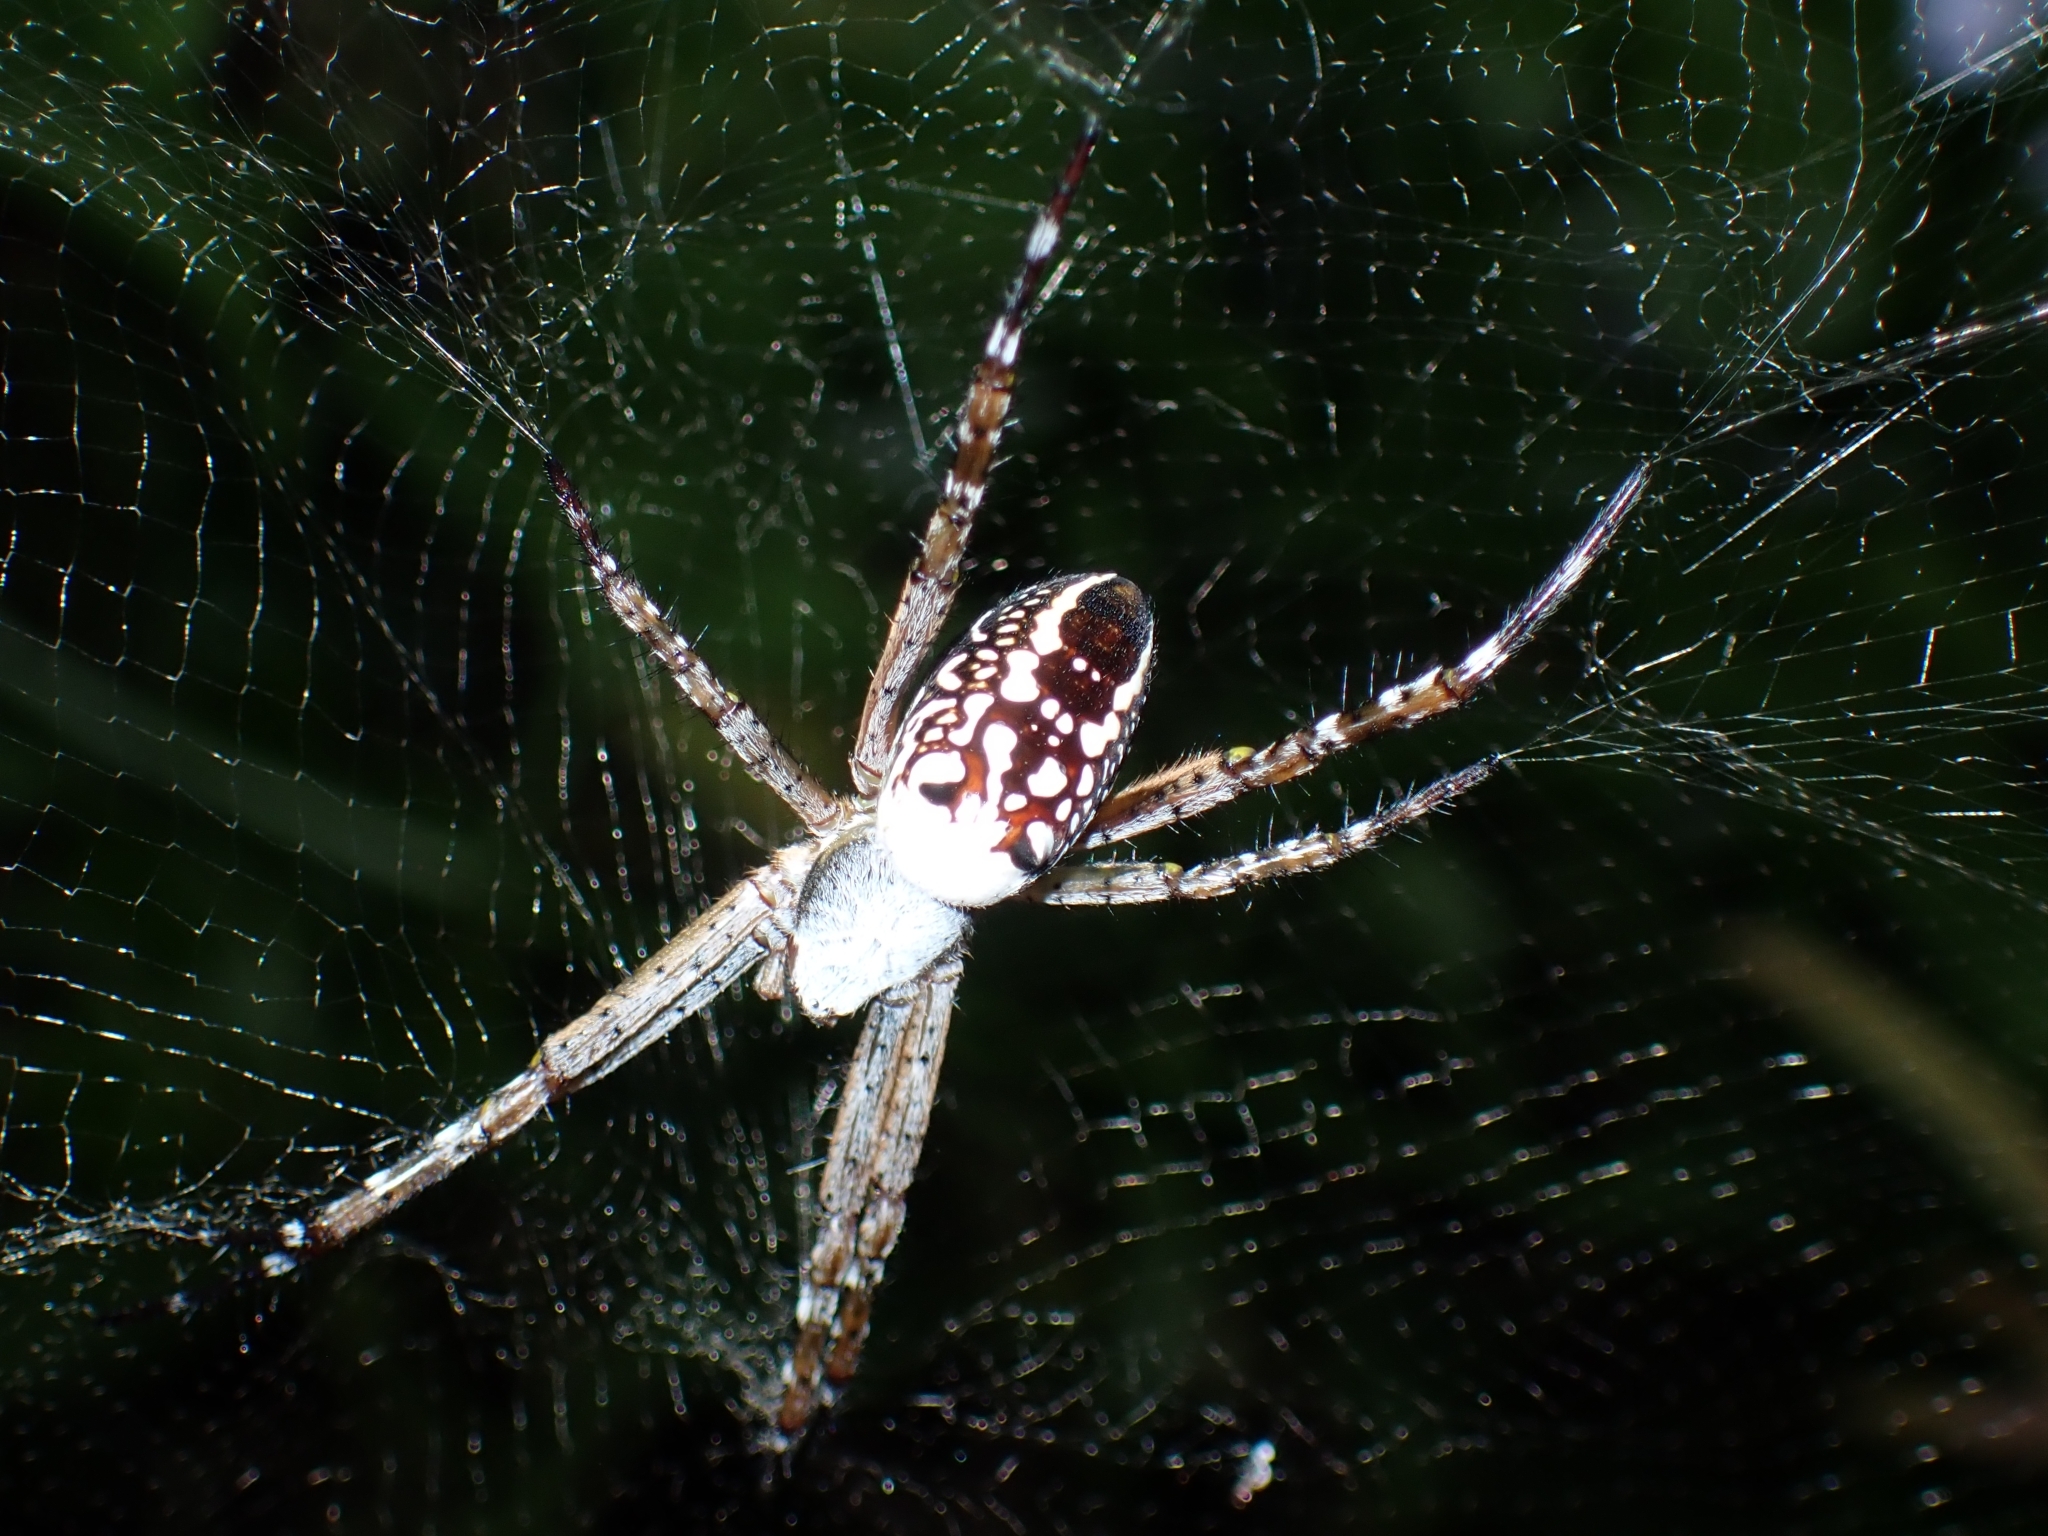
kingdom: Chromista
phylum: Ochrophyta
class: Dictyochophyceae
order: Pedinellales
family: Cyrtophoraceae
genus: Cyrtophora
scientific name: Cyrtophora moluccensis
